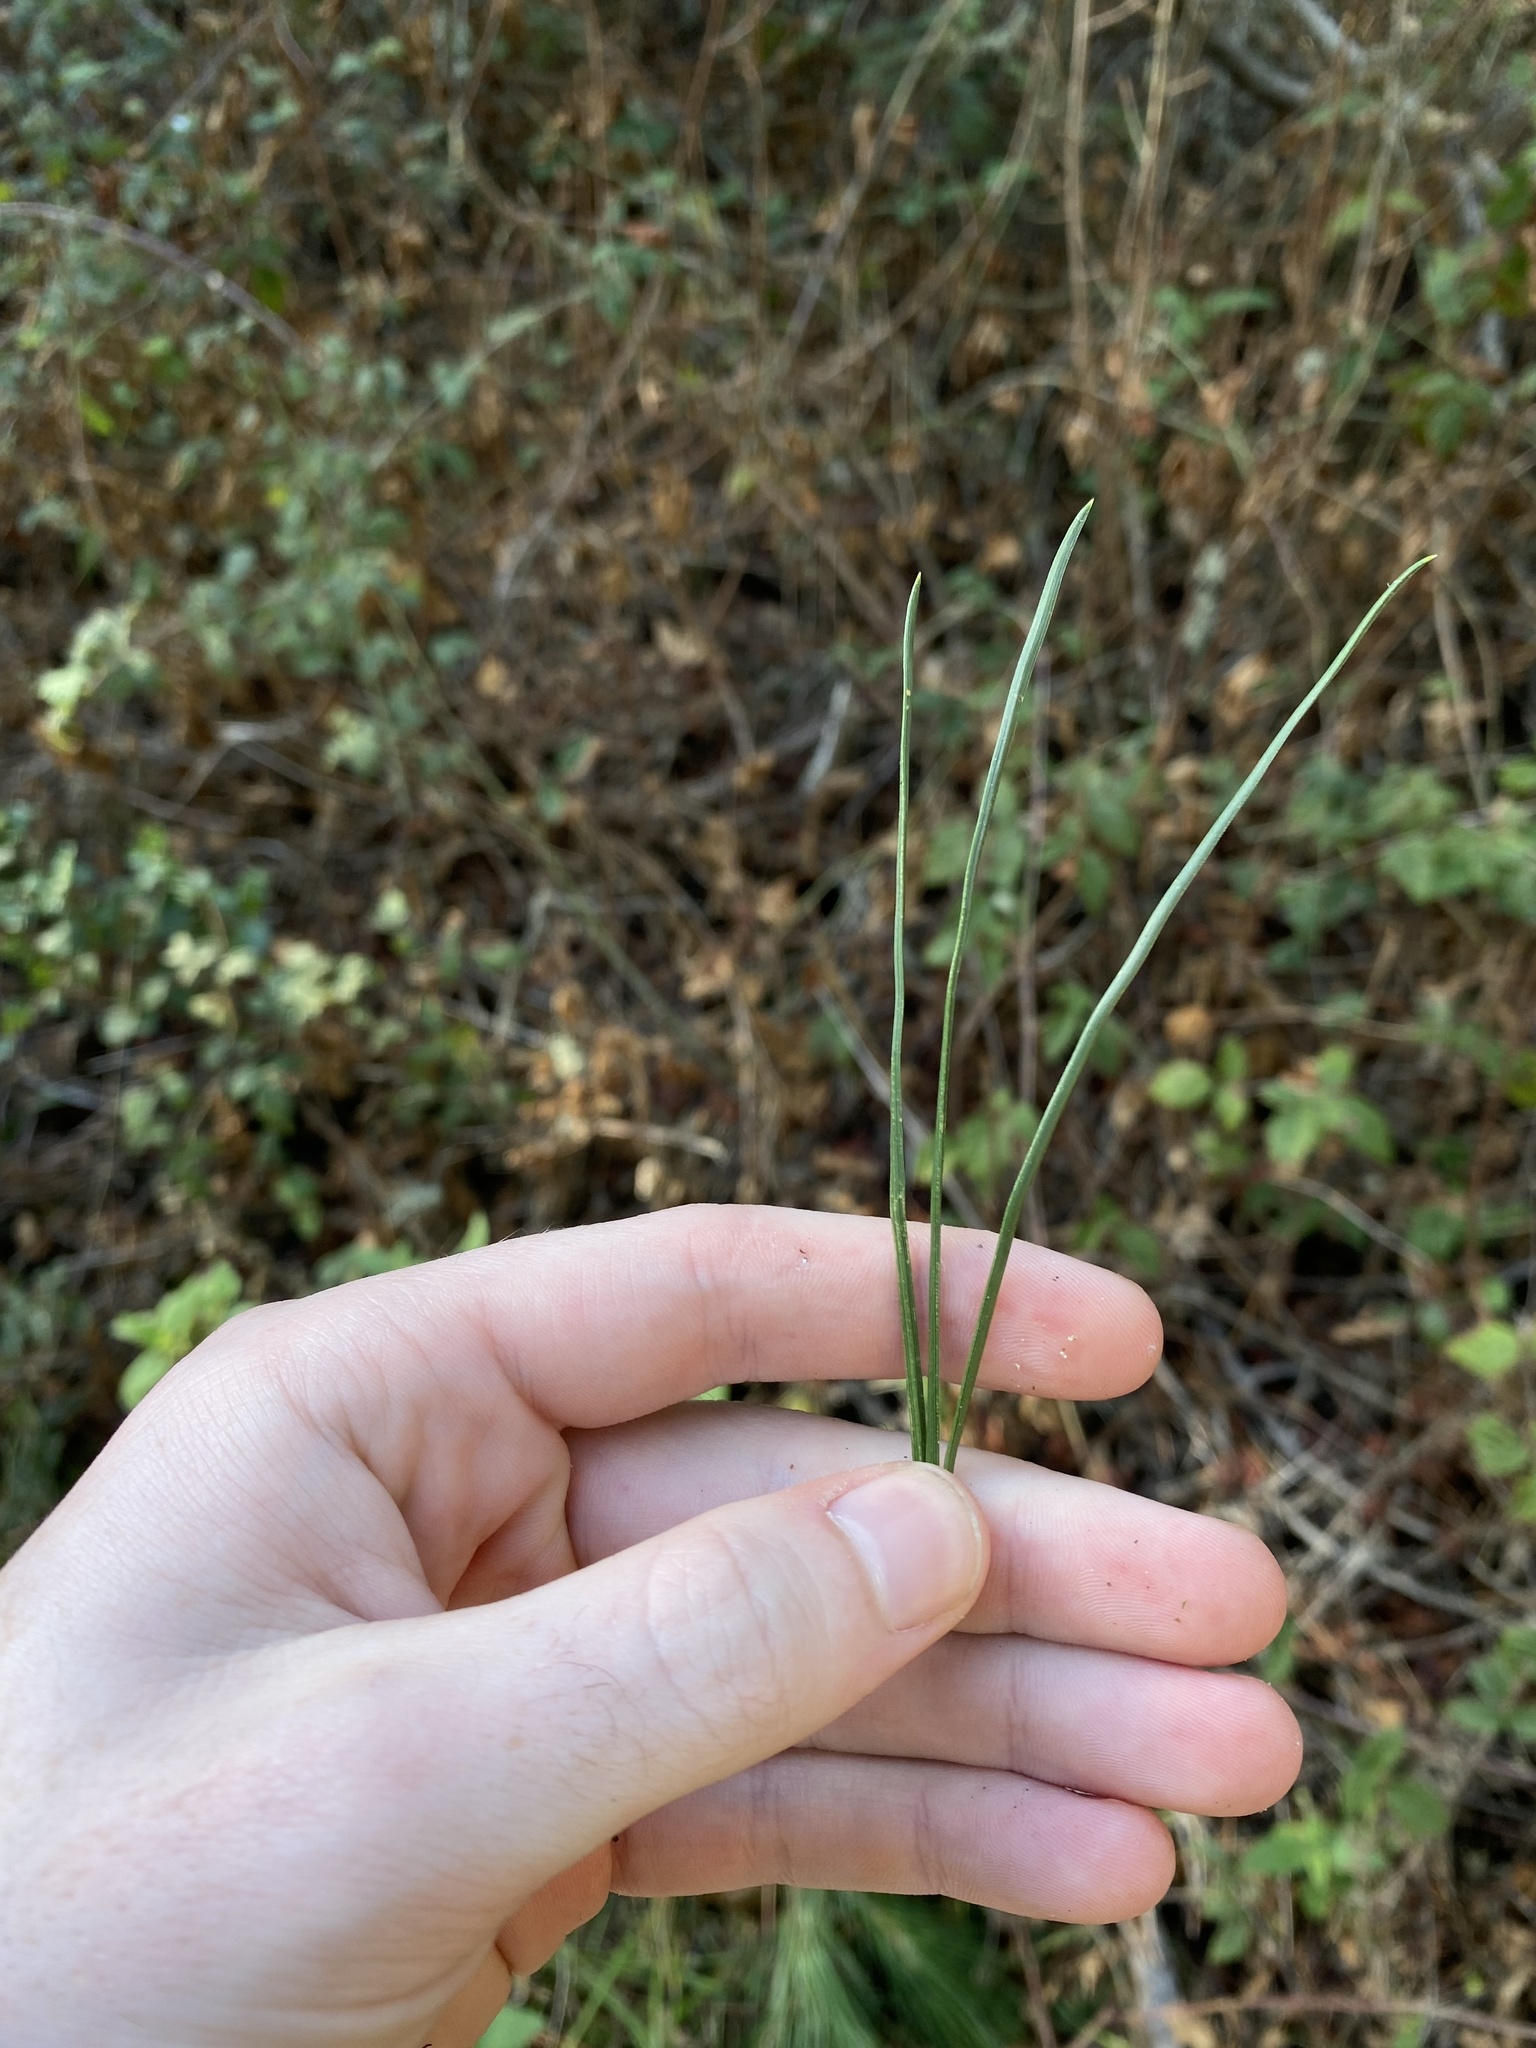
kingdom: Plantae
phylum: Tracheophyta
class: Pinopsida
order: Pinales
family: Pinaceae
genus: Pinus
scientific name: Pinus radiata
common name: Monterey pine
